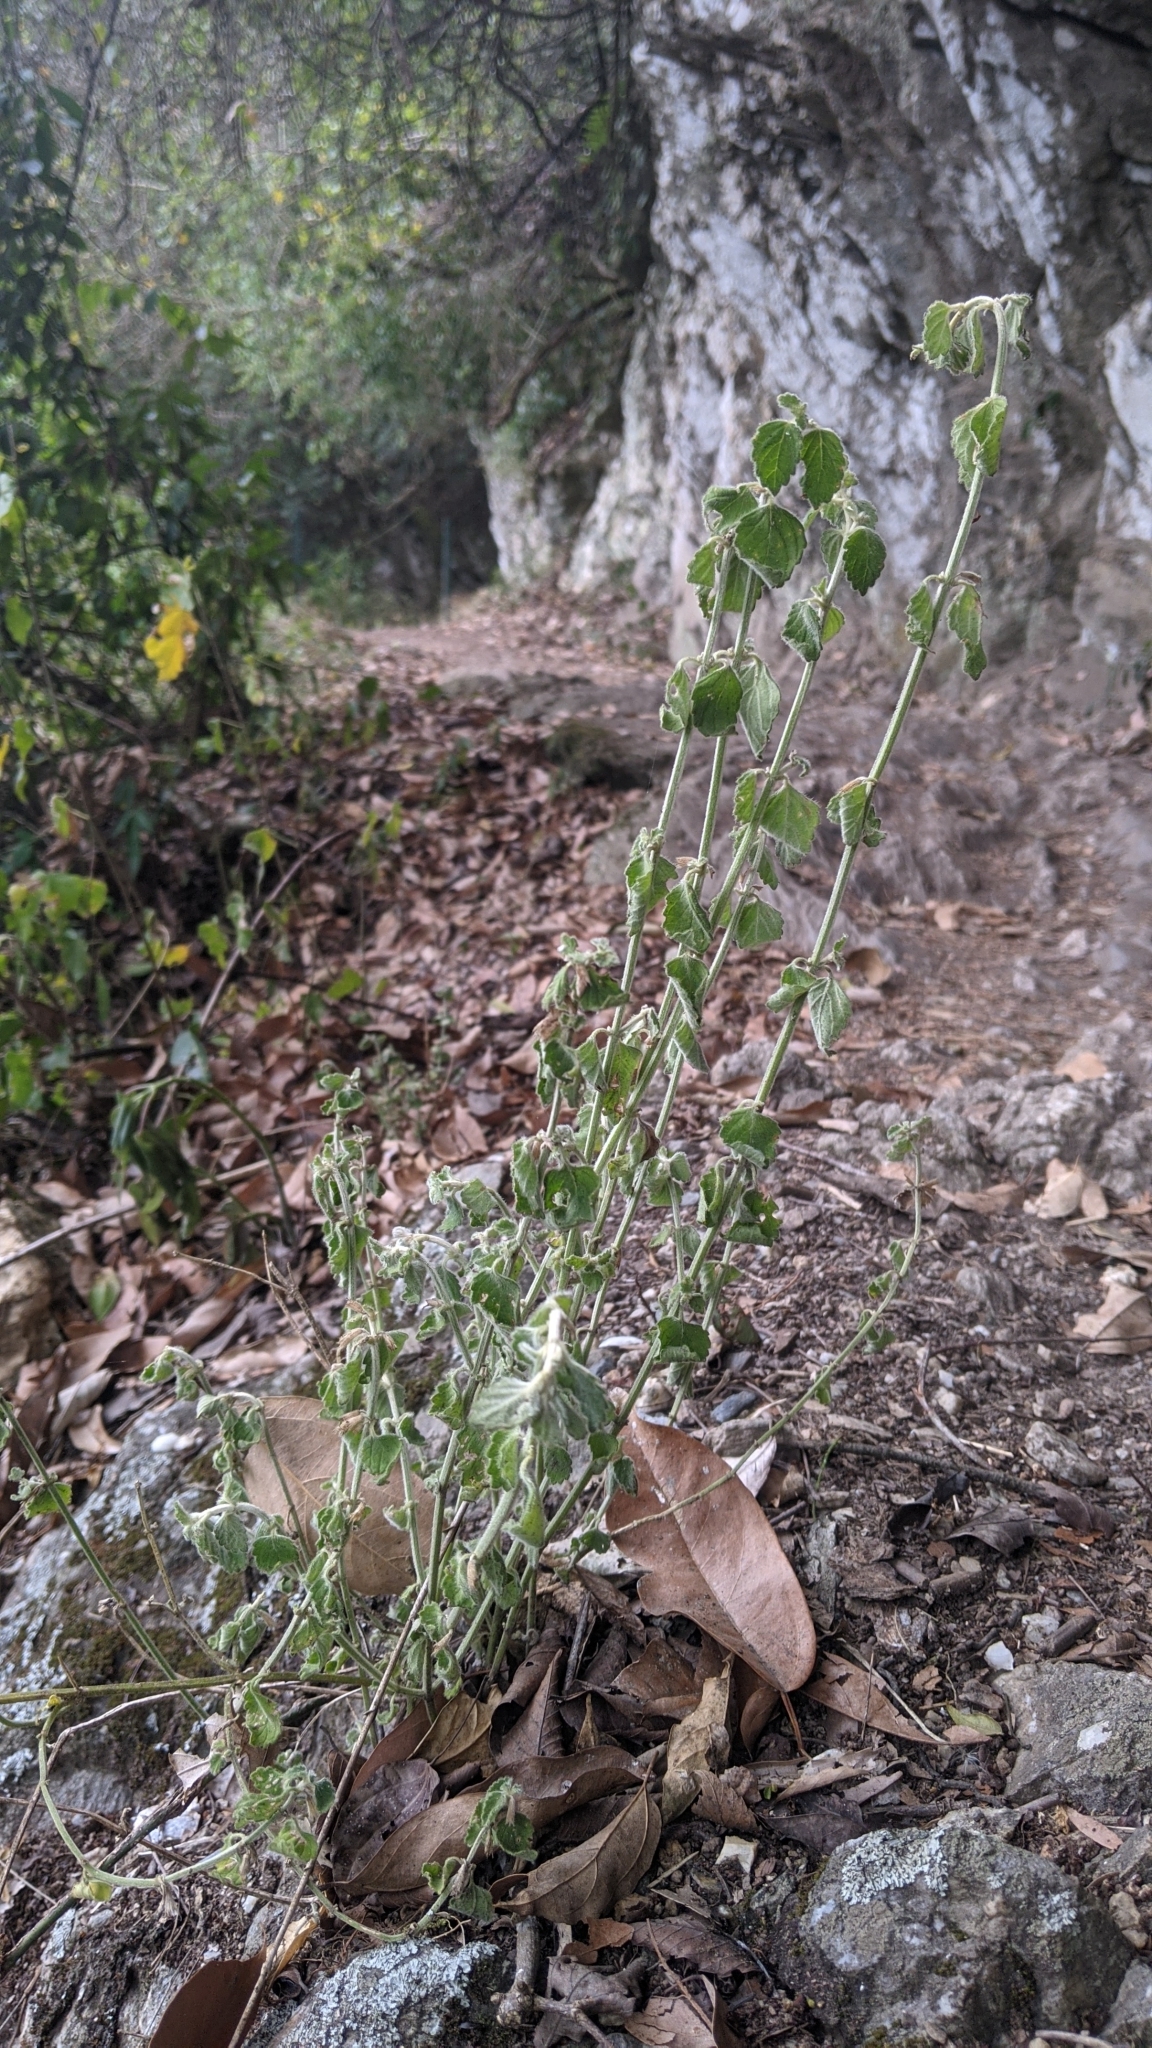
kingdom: Plantae
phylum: Tracheophyta
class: Magnoliopsida
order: Lamiales
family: Lamiaceae
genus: Leucas
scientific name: Leucas chinensis
